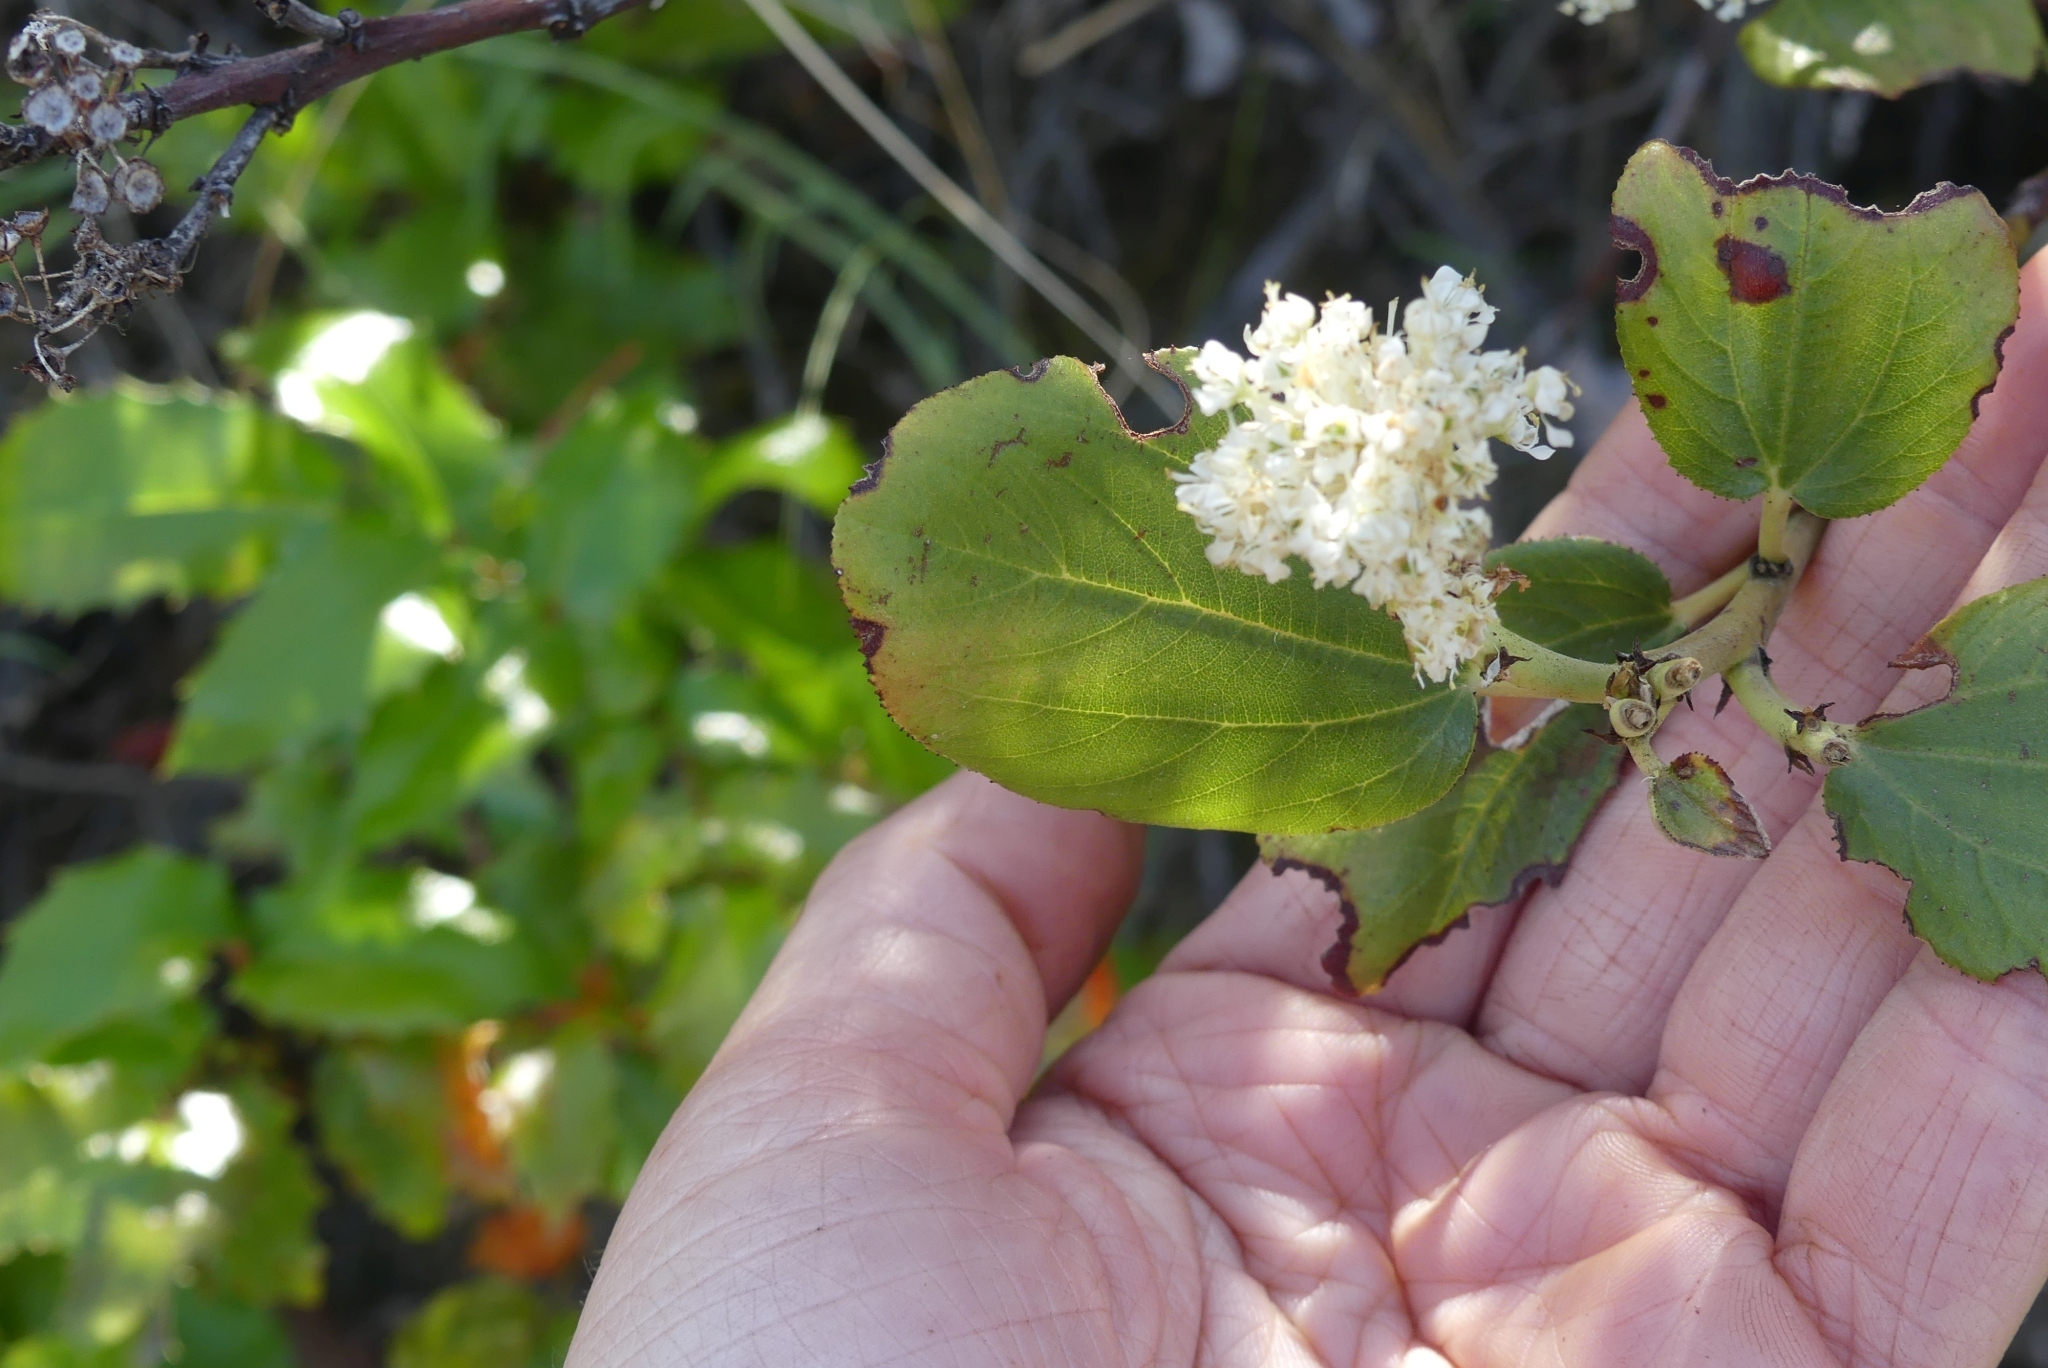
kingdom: Plantae
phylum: Tracheophyta
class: Magnoliopsida
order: Rosales
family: Rhamnaceae
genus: Ceanothus
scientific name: Ceanothus velutinus
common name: Snowbrush
